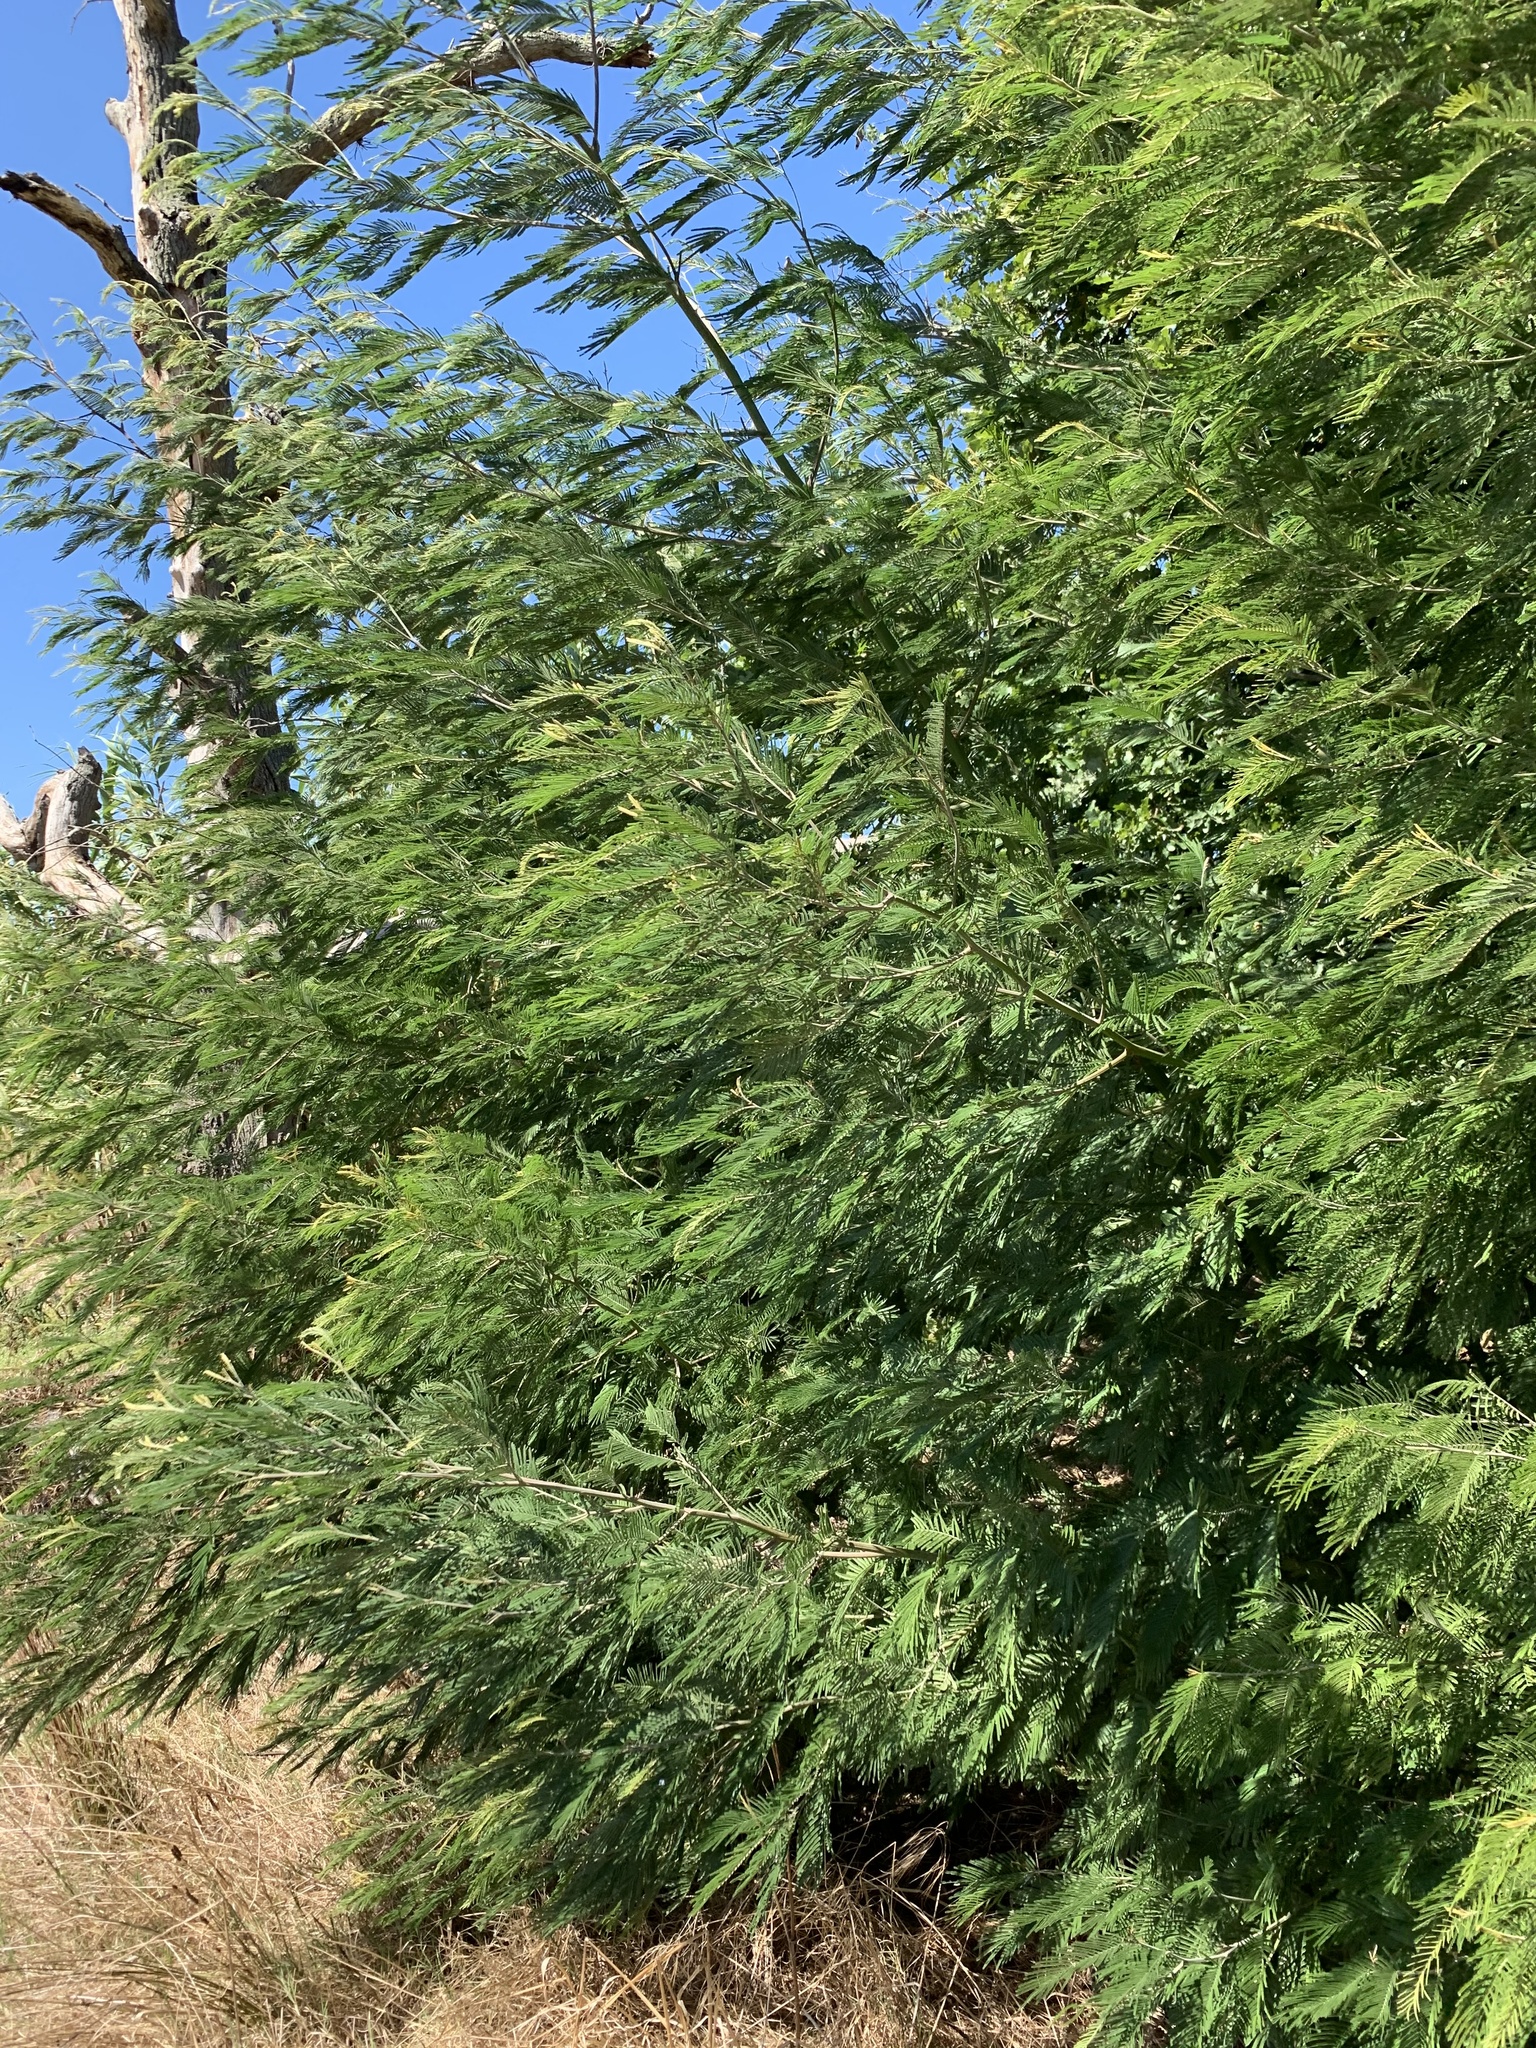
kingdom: Plantae
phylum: Tracheophyta
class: Magnoliopsida
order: Fabales
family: Fabaceae
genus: Acacia
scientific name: Acacia mearnsii
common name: Black wattle
